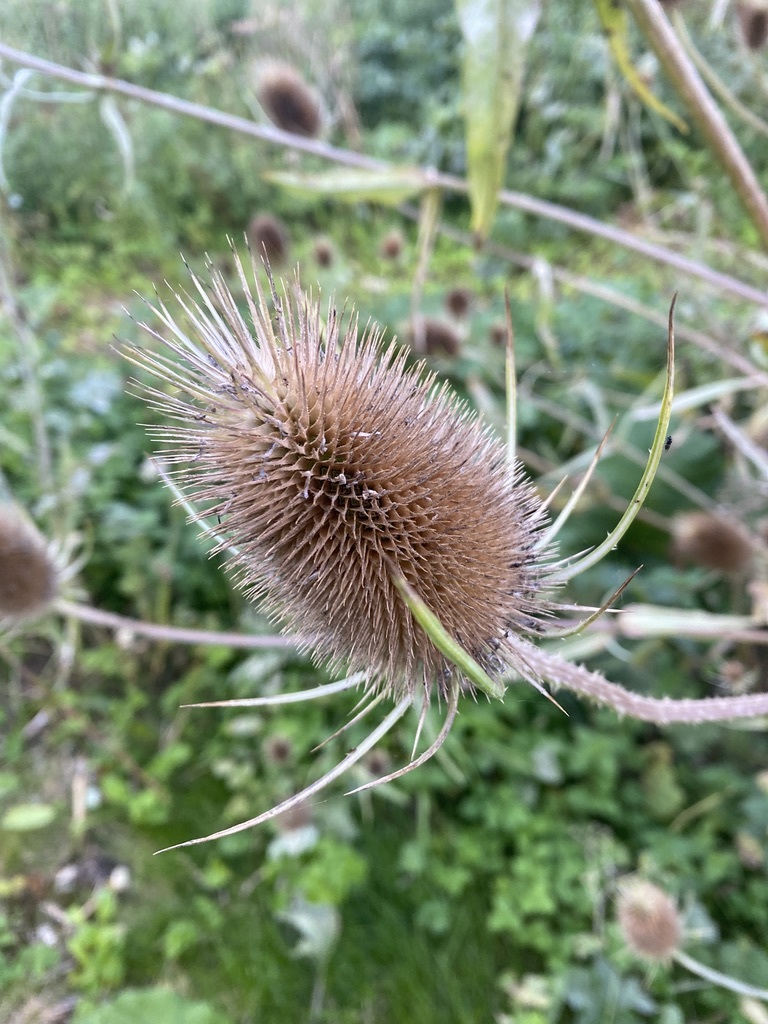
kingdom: Plantae
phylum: Tracheophyta
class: Magnoliopsida
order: Dipsacales
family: Caprifoliaceae
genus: Dipsacus
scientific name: Dipsacus fullonum
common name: Teasel
